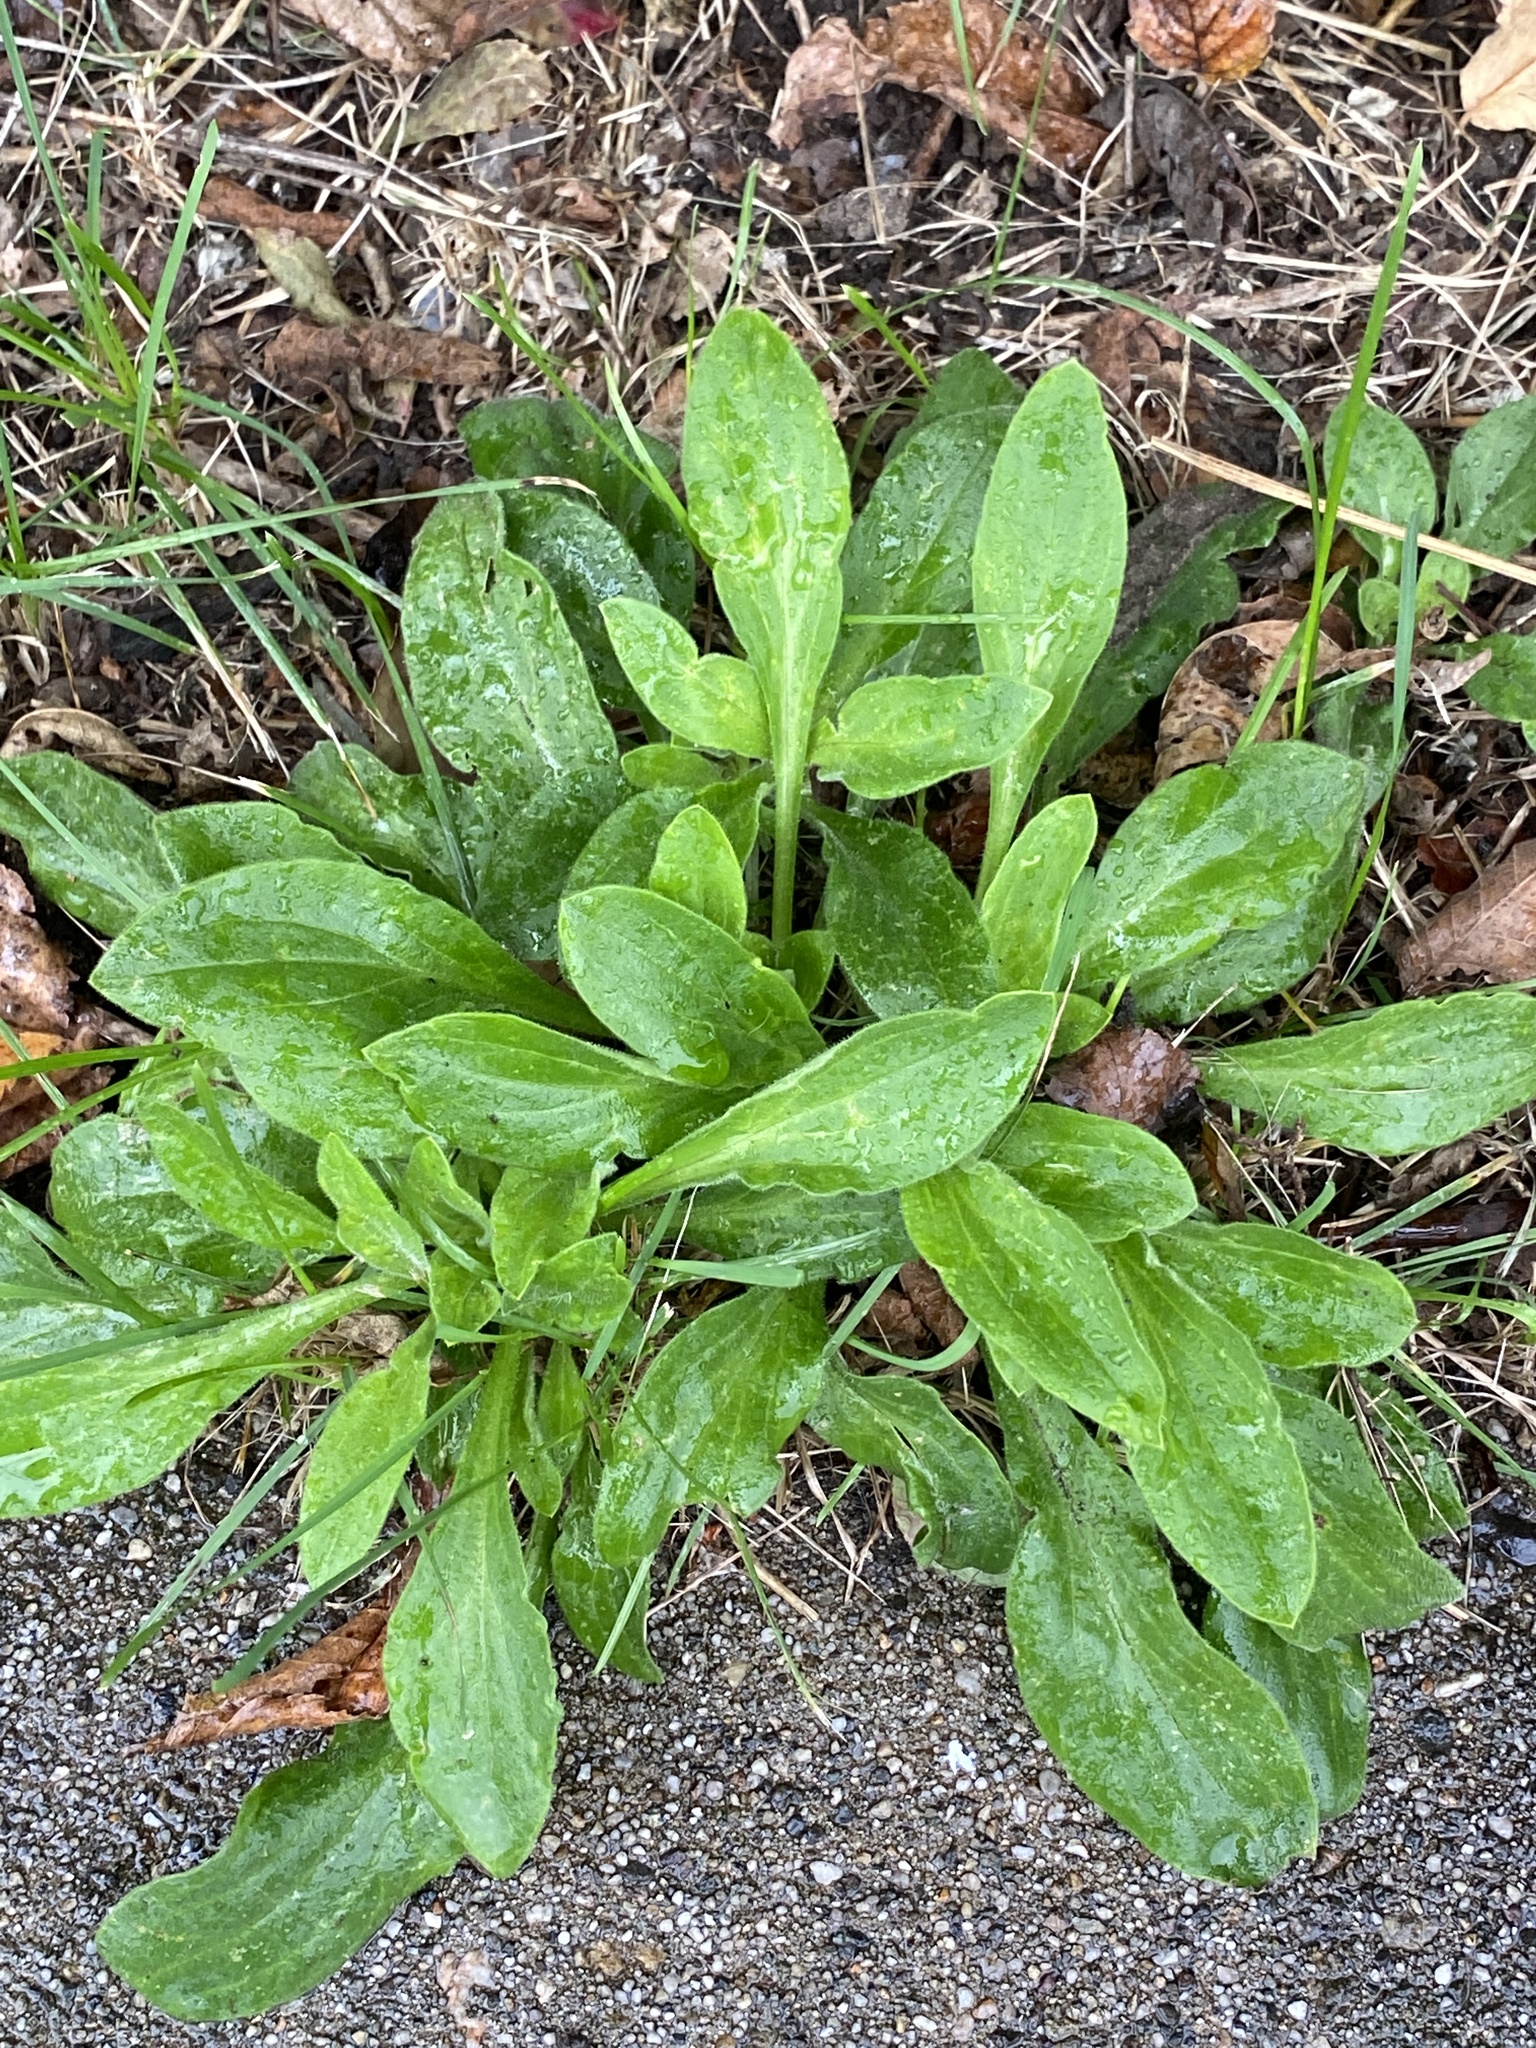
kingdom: Plantae
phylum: Tracheophyta
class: Magnoliopsida
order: Caryophyllales
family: Caryophyllaceae
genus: Silene
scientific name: Silene latifolia
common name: White campion
